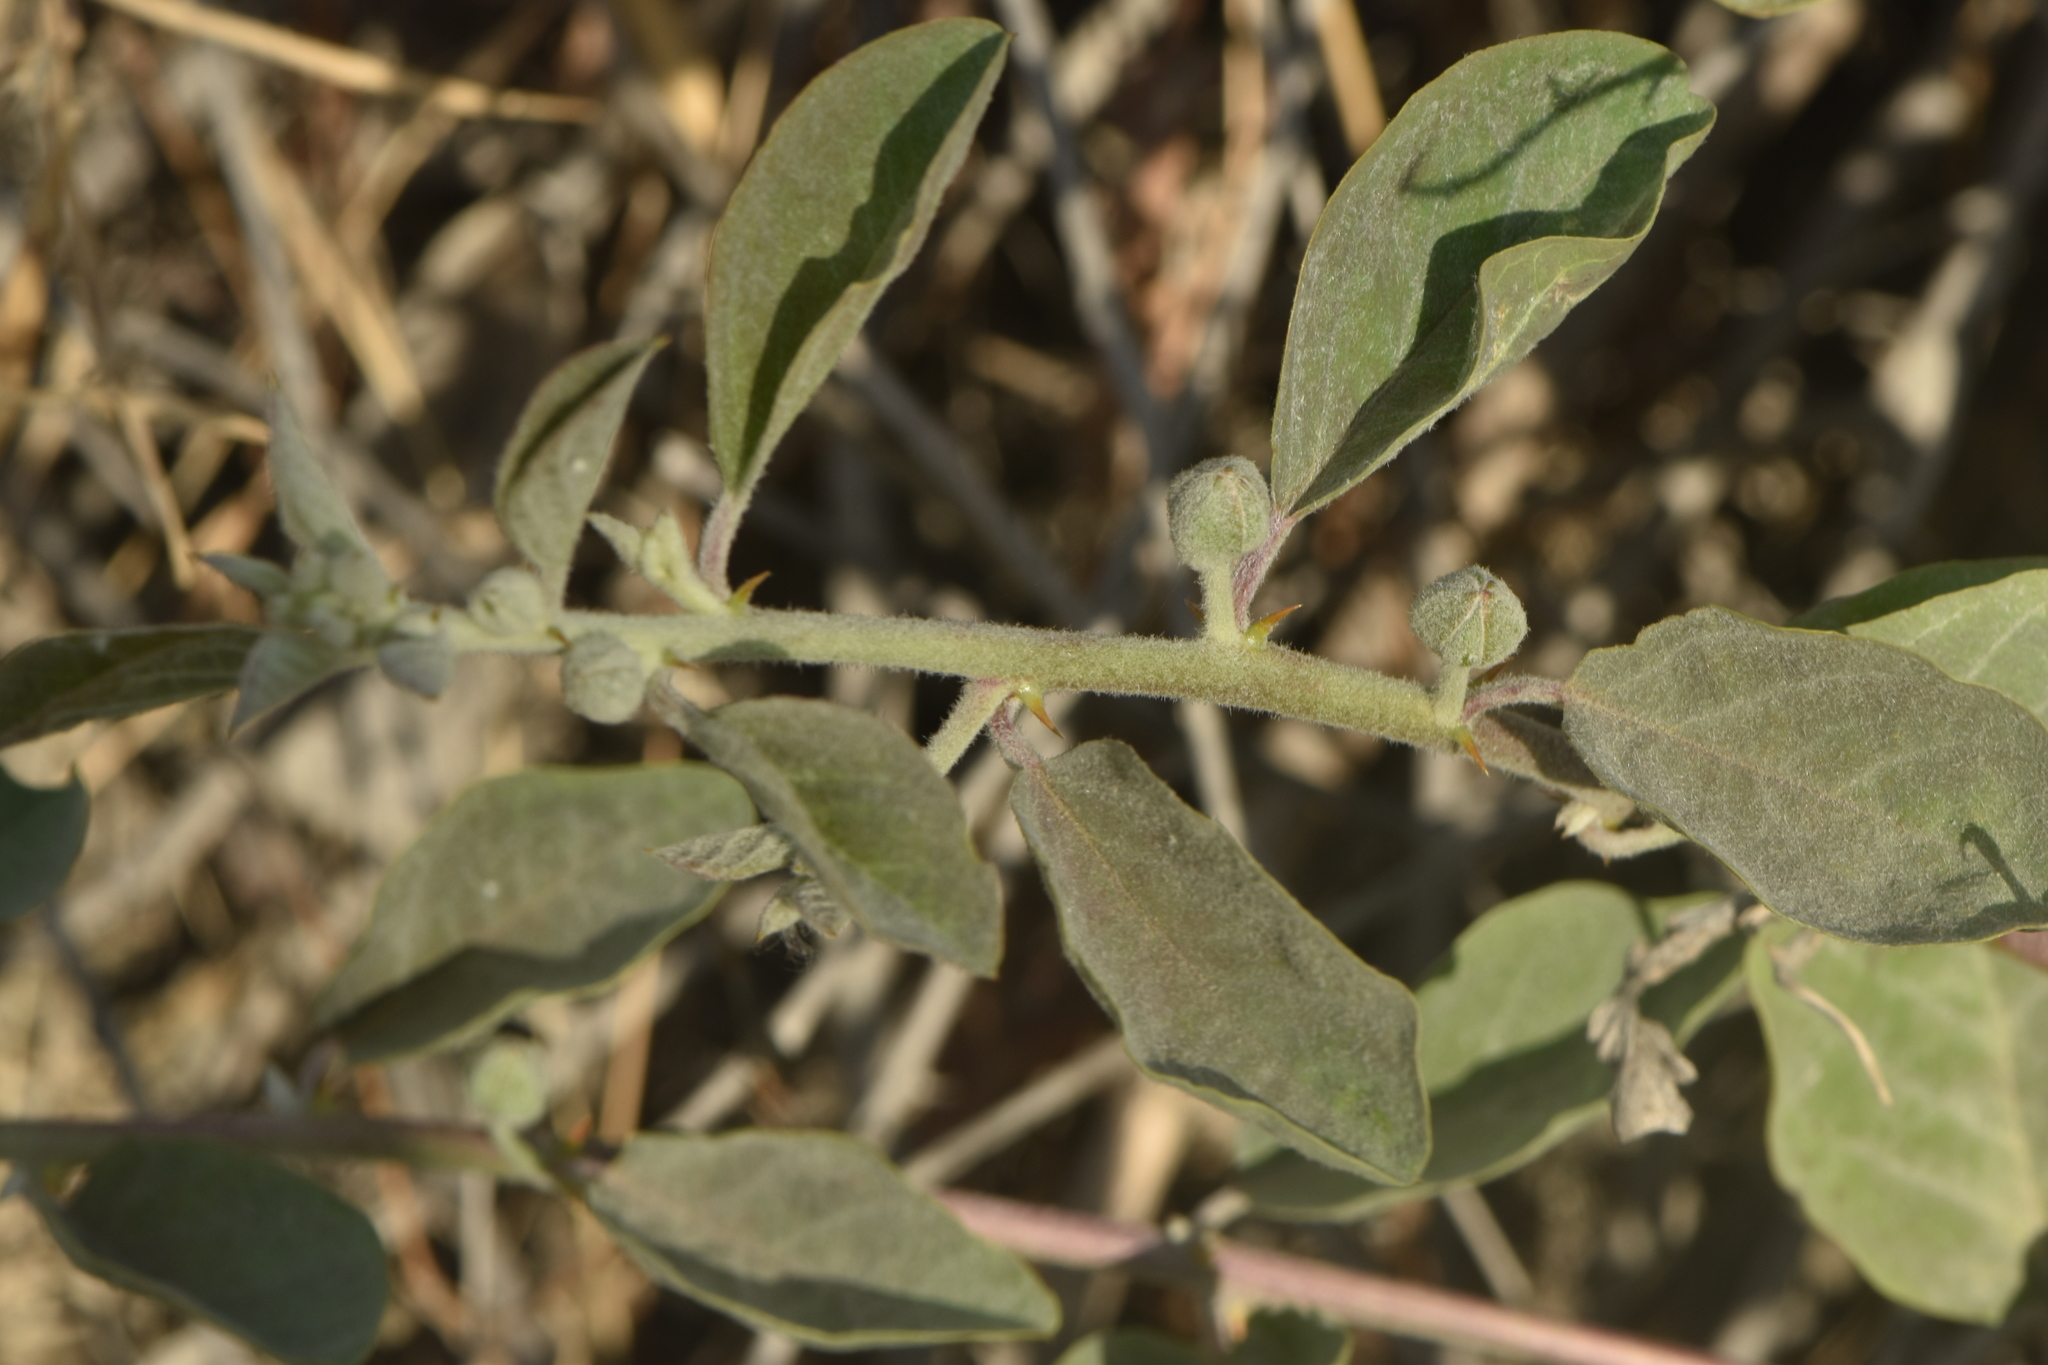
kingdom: Plantae
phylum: Tracheophyta
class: Magnoliopsida
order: Brassicales
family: Capparaceae
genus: Capparis
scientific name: Capparis spinosa
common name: Caper
